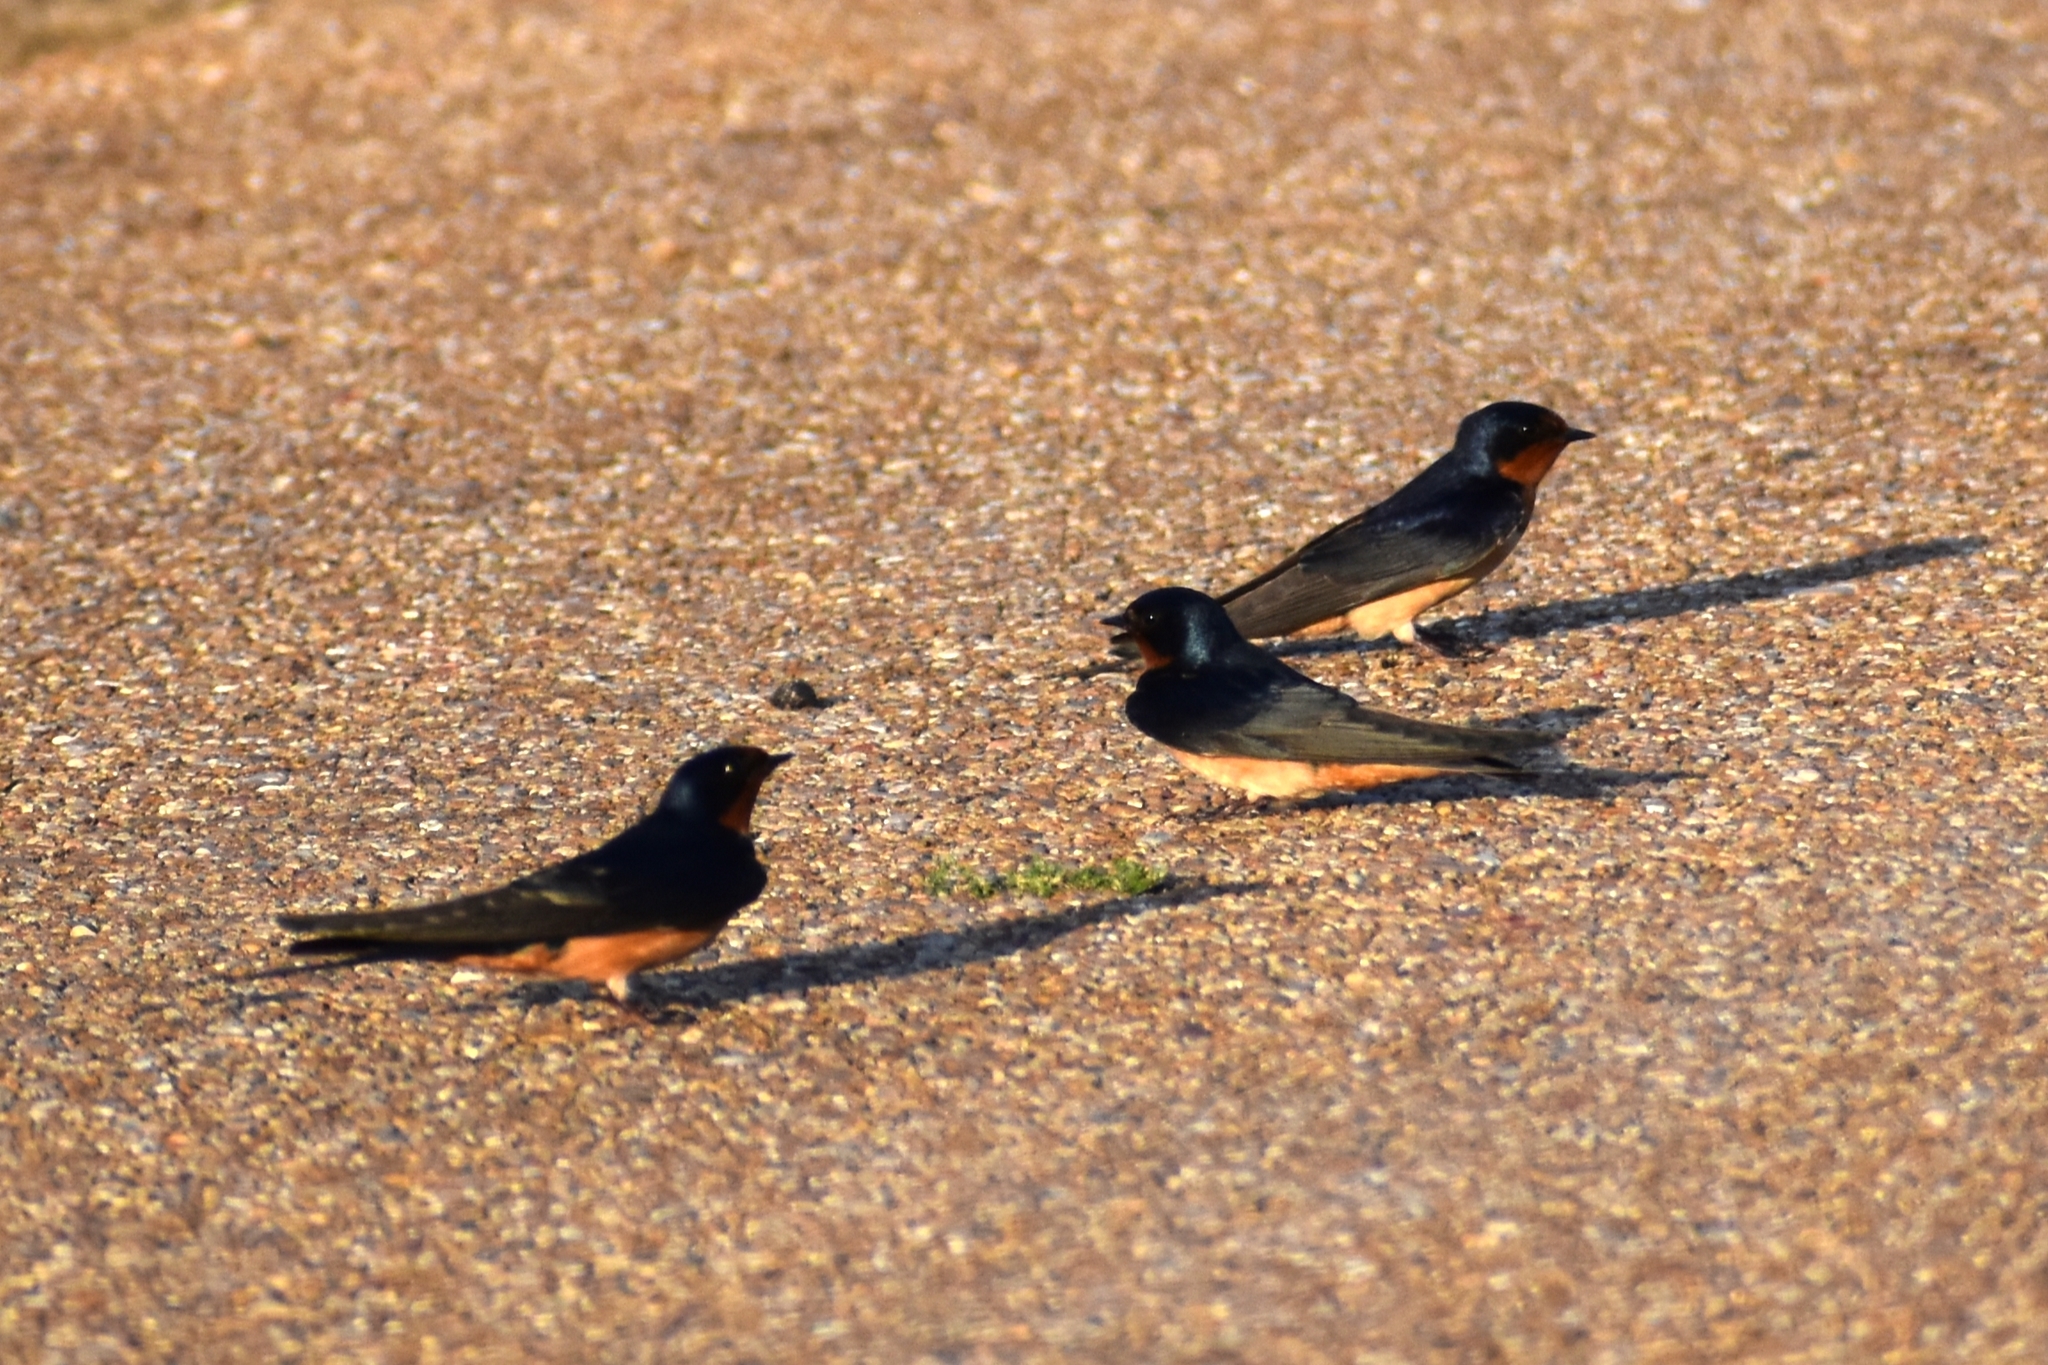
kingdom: Animalia
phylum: Chordata
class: Aves
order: Passeriformes
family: Hirundinidae
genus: Hirundo
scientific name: Hirundo rustica
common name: Barn swallow
